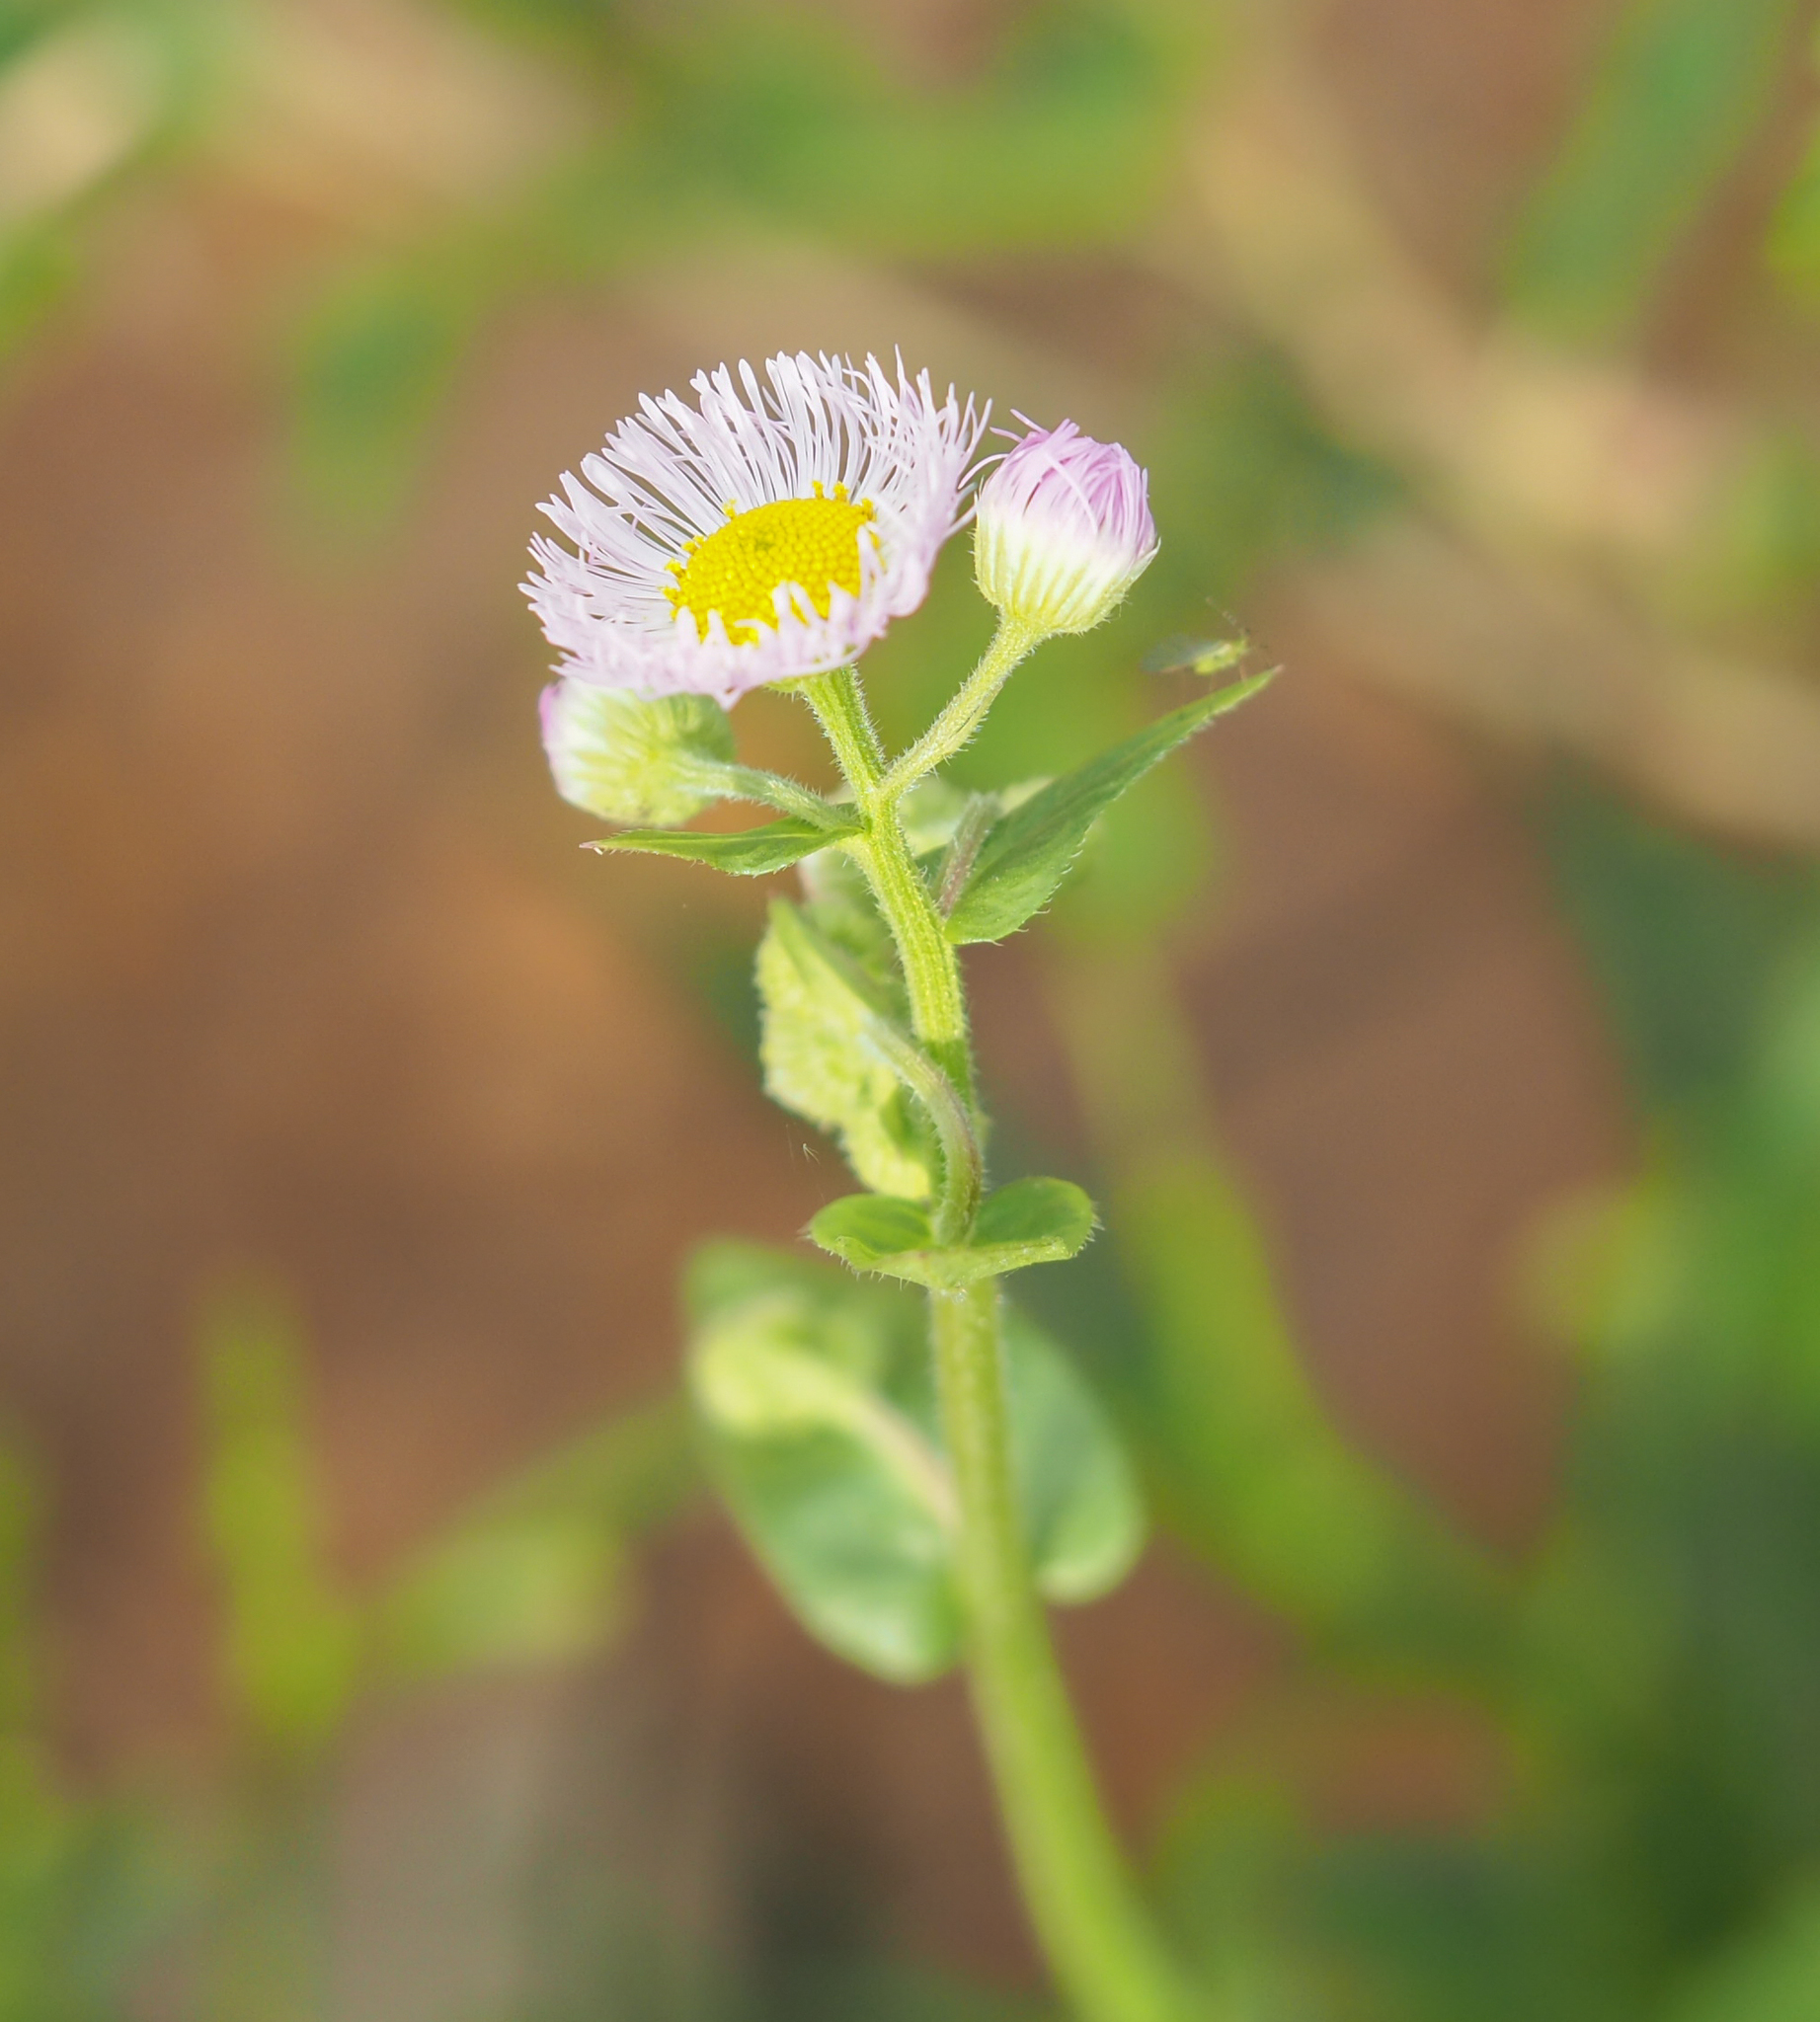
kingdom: Plantae
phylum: Tracheophyta
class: Magnoliopsida
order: Asterales
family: Asteraceae
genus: Erigeron
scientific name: Erigeron philadelphicus
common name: Robin's-plantain
